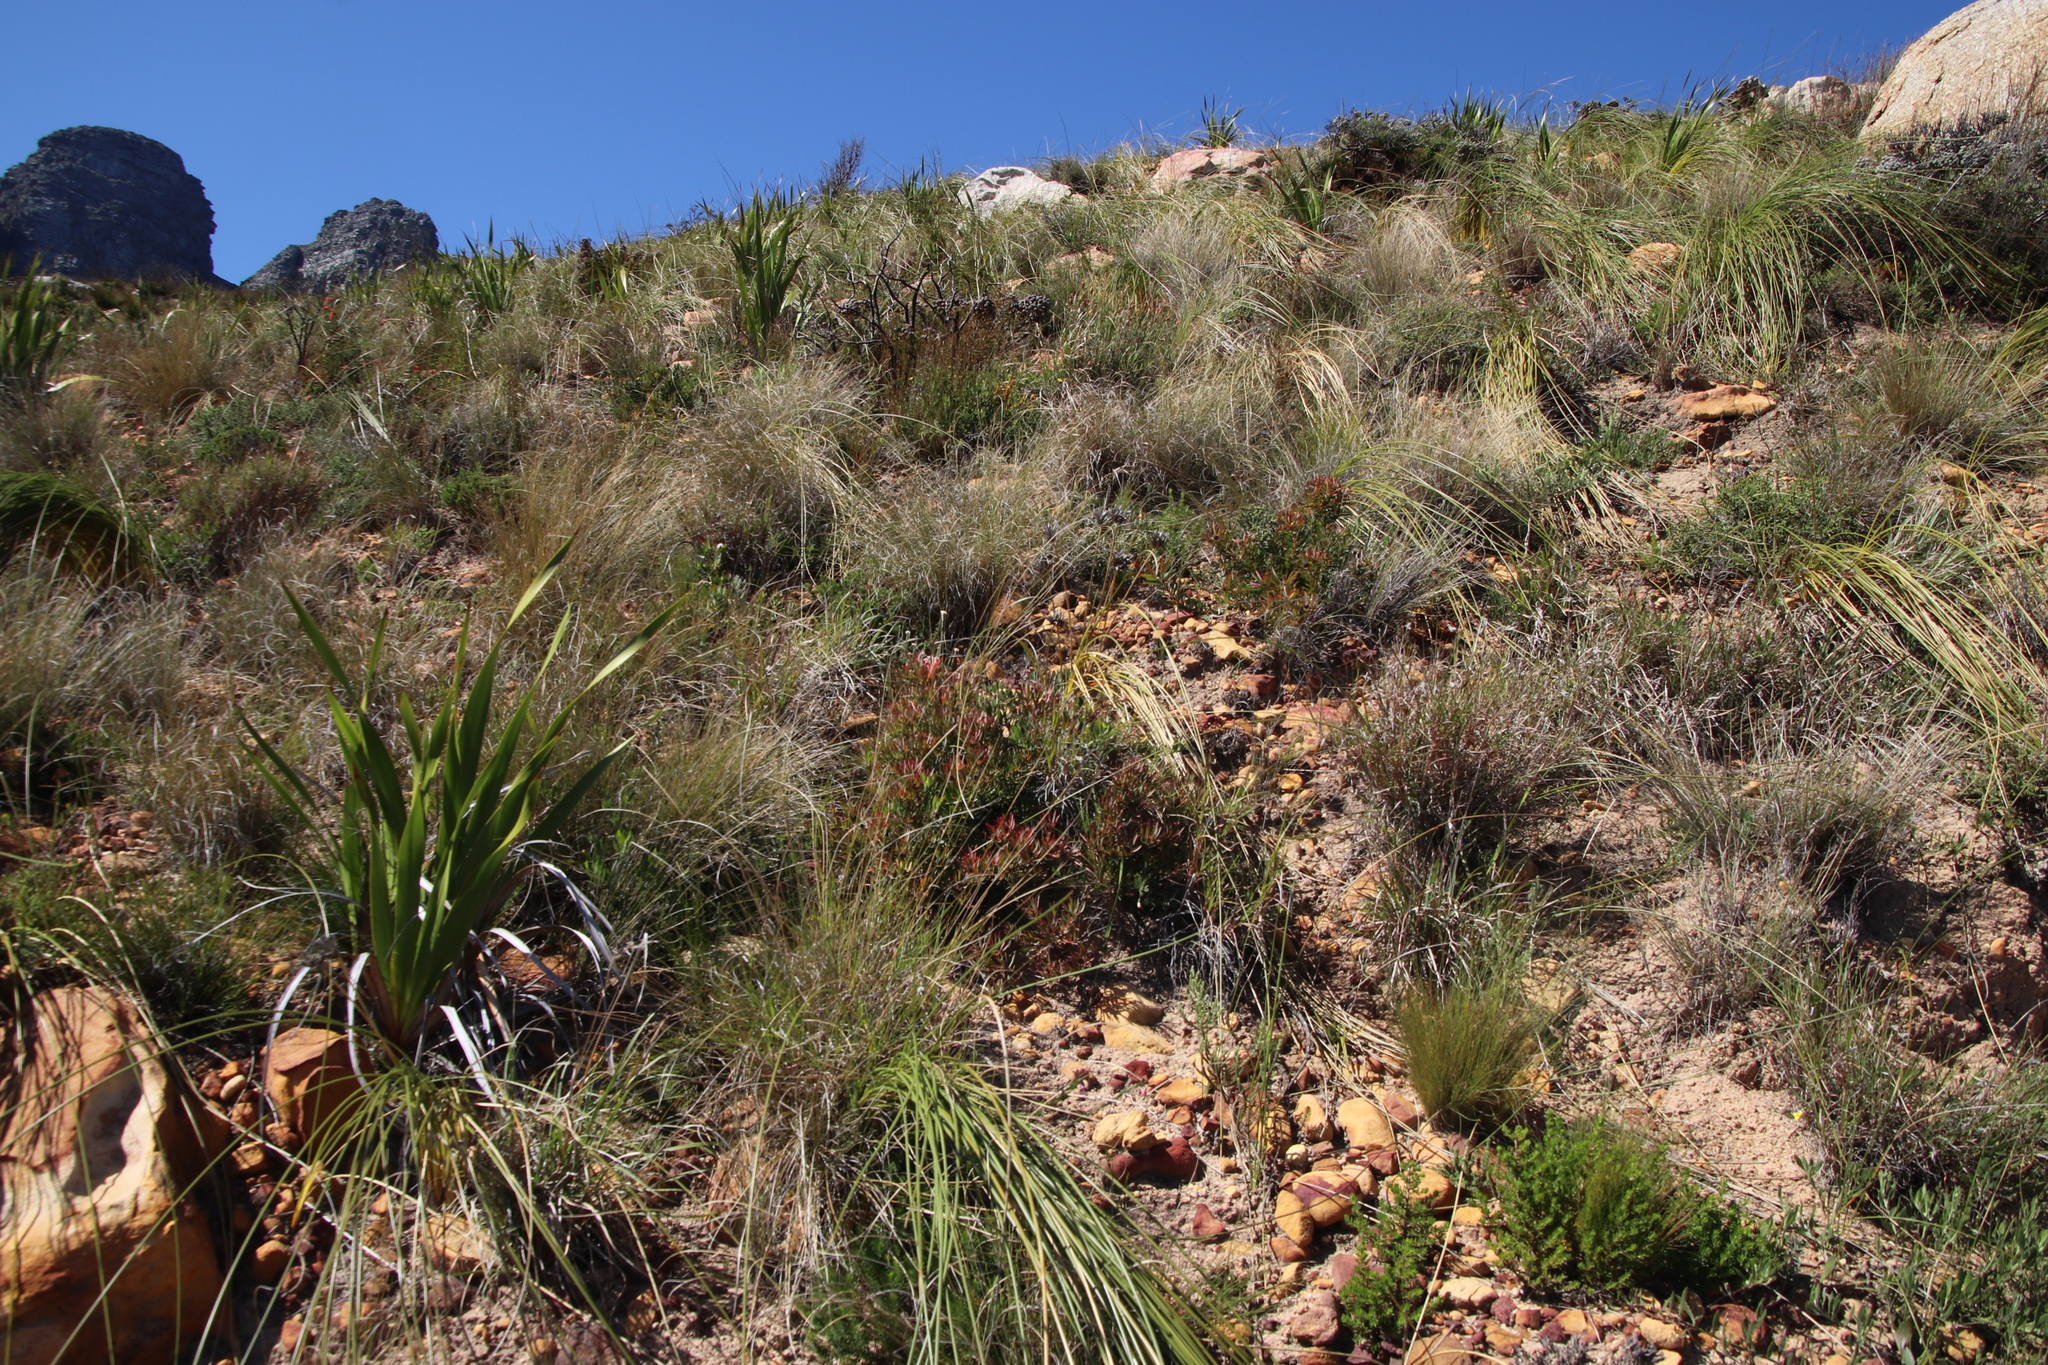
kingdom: Plantae
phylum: Tracheophyta
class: Magnoliopsida
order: Proteales
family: Proteaceae
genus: Leucadendron
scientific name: Leucadendron salignum
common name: Common sunshine conebush
